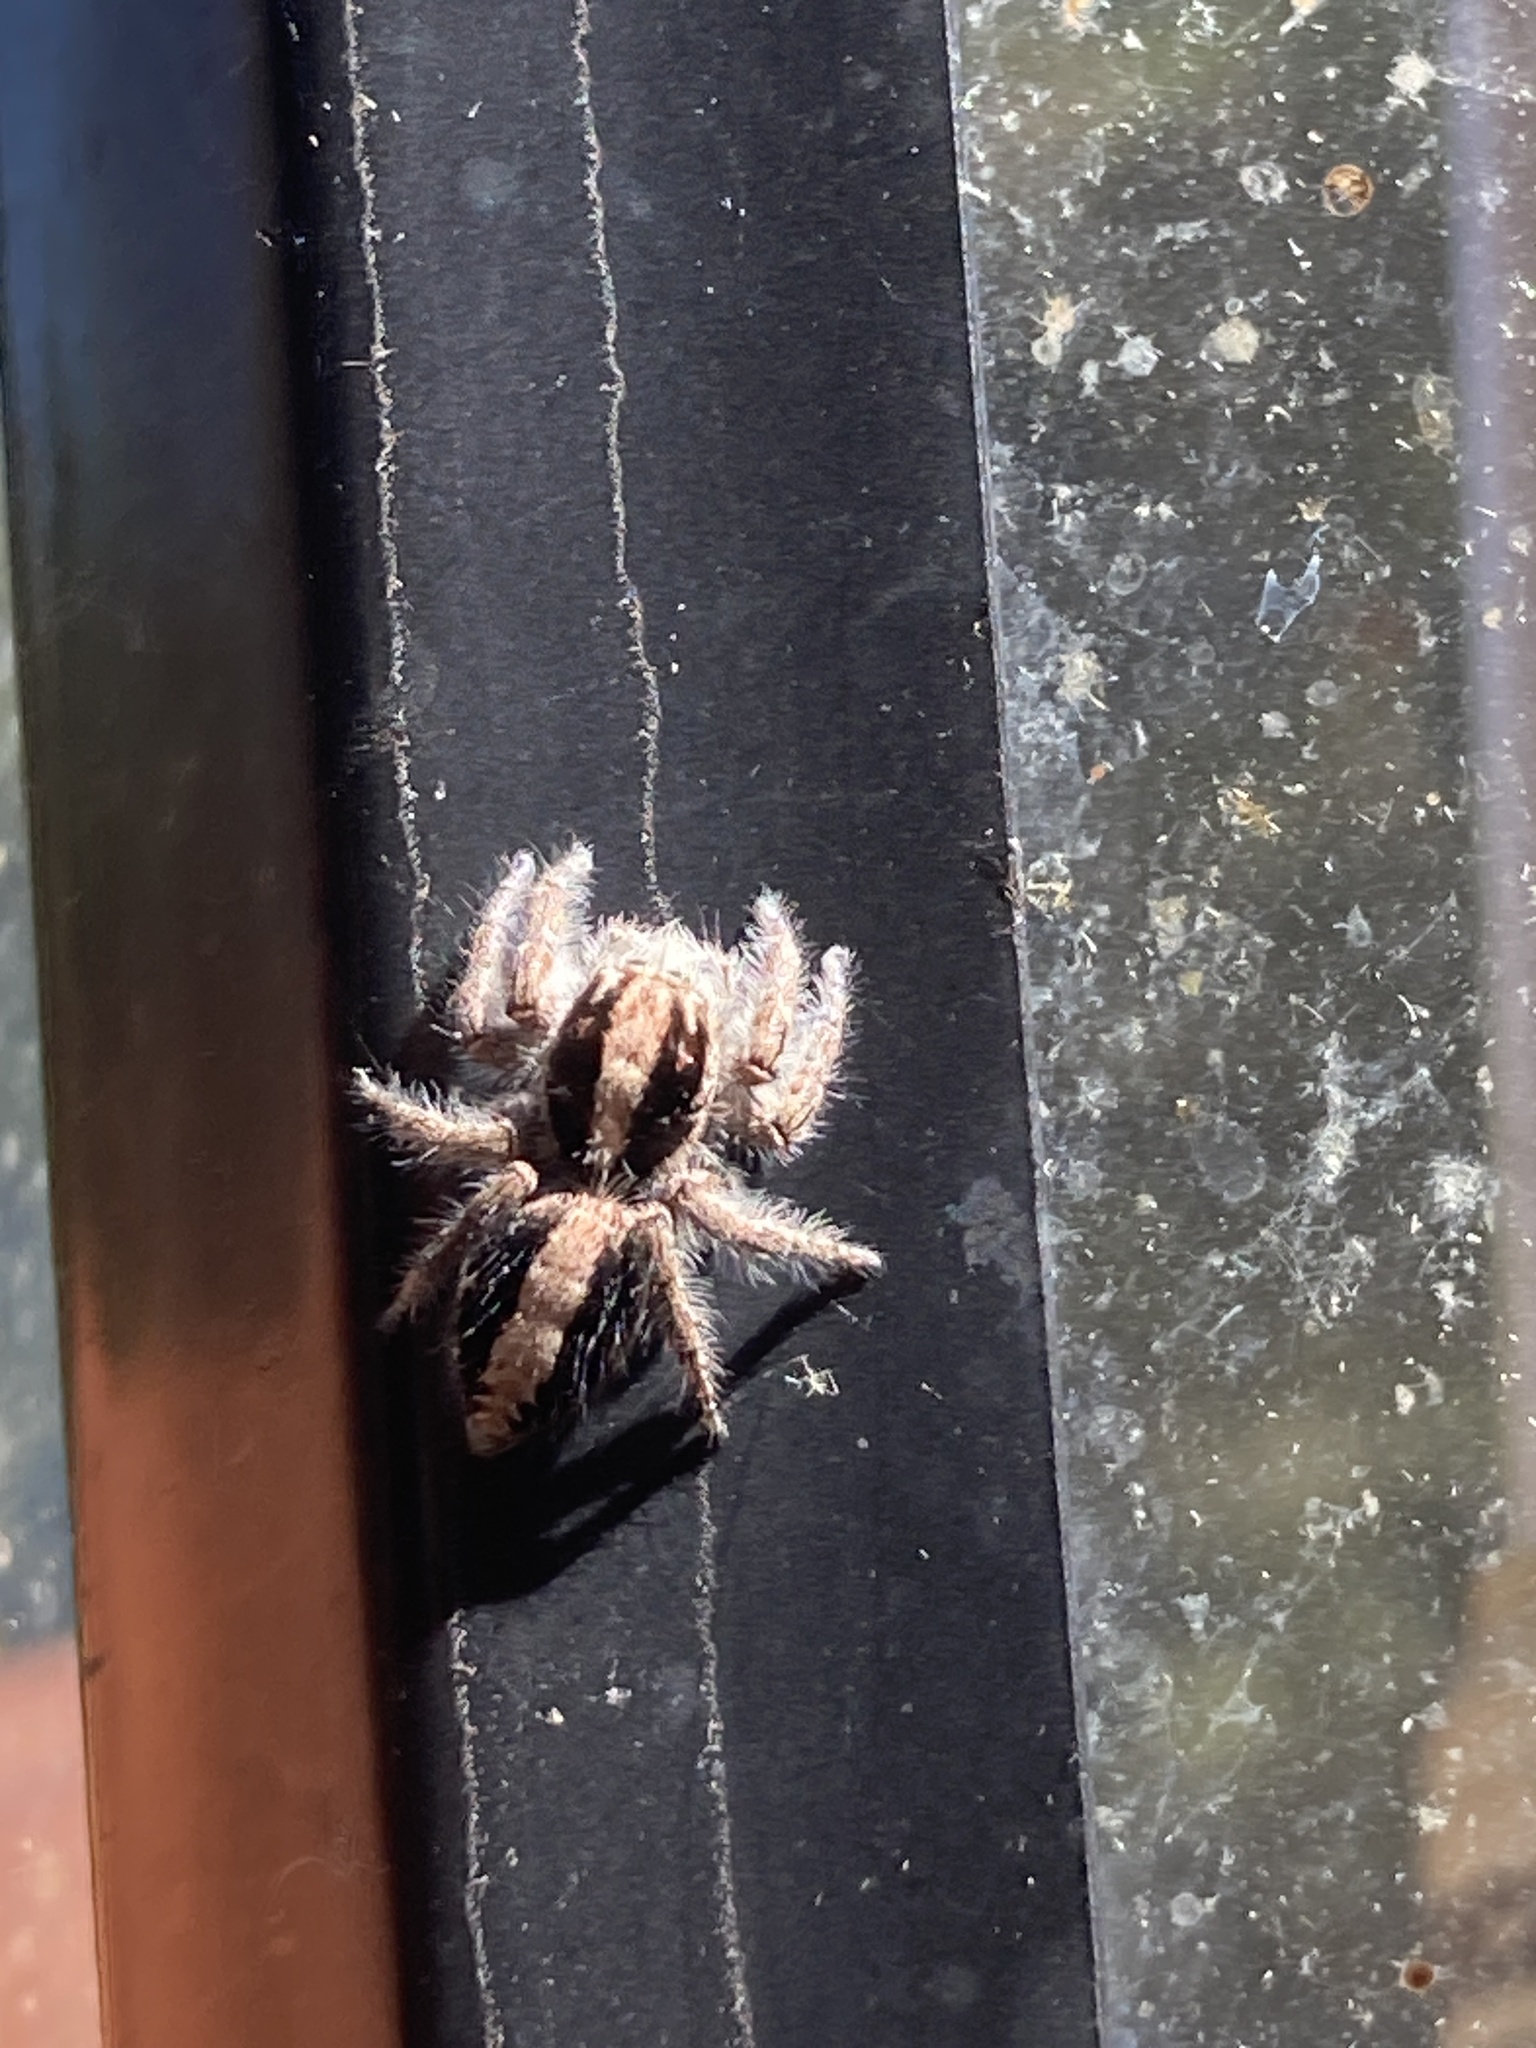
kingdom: Animalia
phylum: Arthropoda
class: Arachnida
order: Araneae
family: Salticidae
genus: Megafreya
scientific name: Megafreya sutrix
